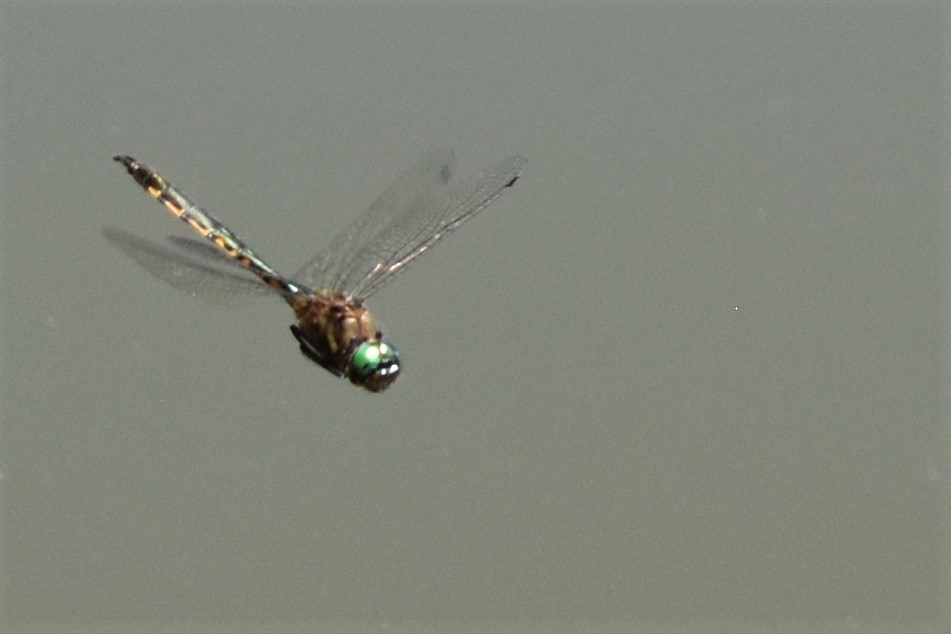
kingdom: Animalia
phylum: Arthropoda
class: Insecta
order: Odonata
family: Corduliidae
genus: Hemicordulia
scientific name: Hemicordulia armstrongi
